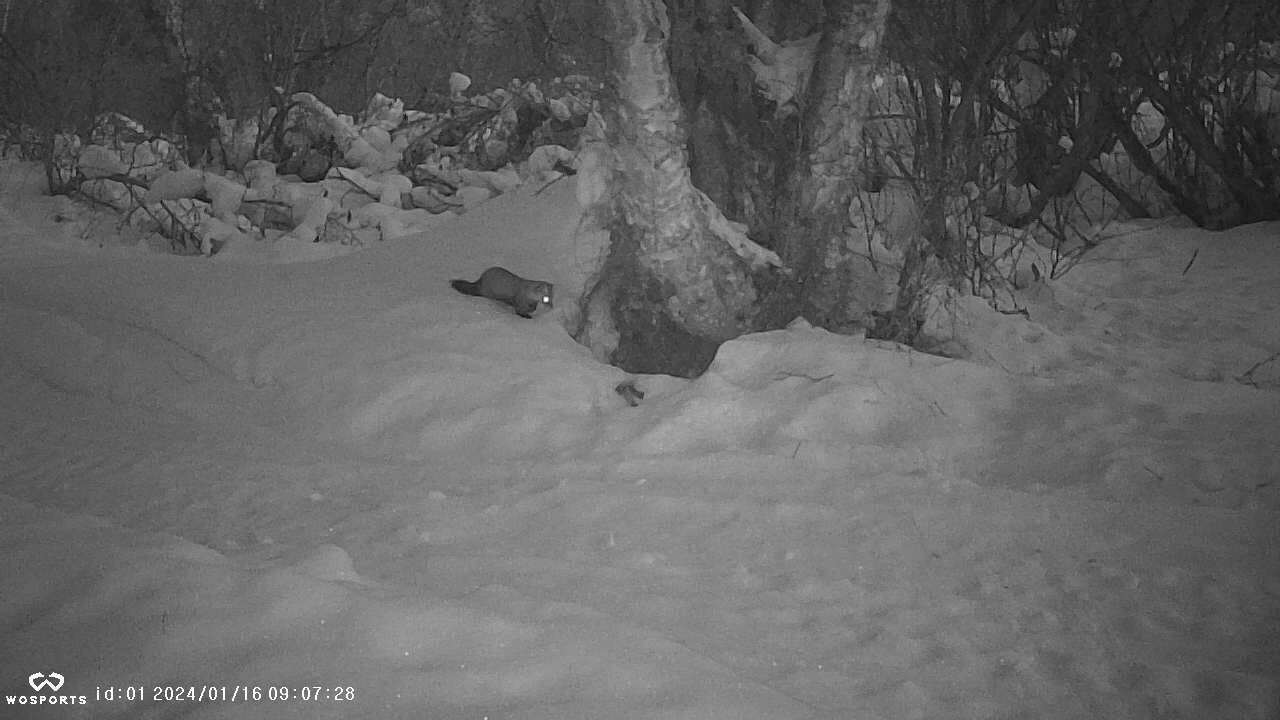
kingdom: Animalia
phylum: Chordata
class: Mammalia
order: Carnivora
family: Mustelidae
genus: Martes
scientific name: Martes americana
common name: American marten
